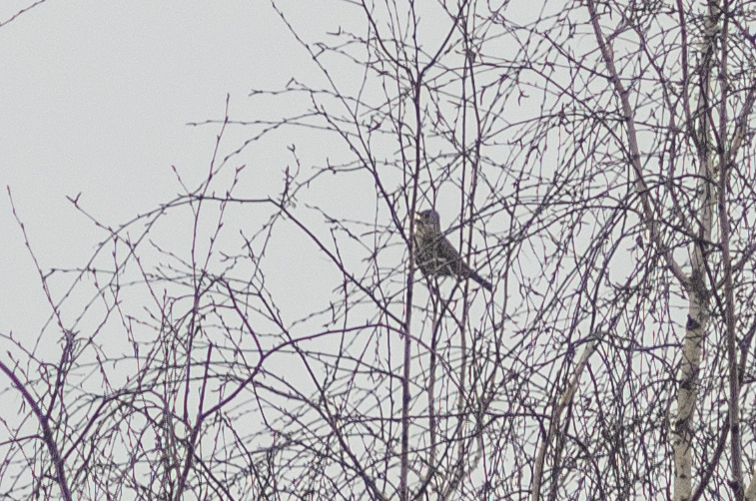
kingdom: Animalia
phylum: Chordata
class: Aves
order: Passeriformes
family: Turdidae
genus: Turdus
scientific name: Turdus philomelos
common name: Song thrush
